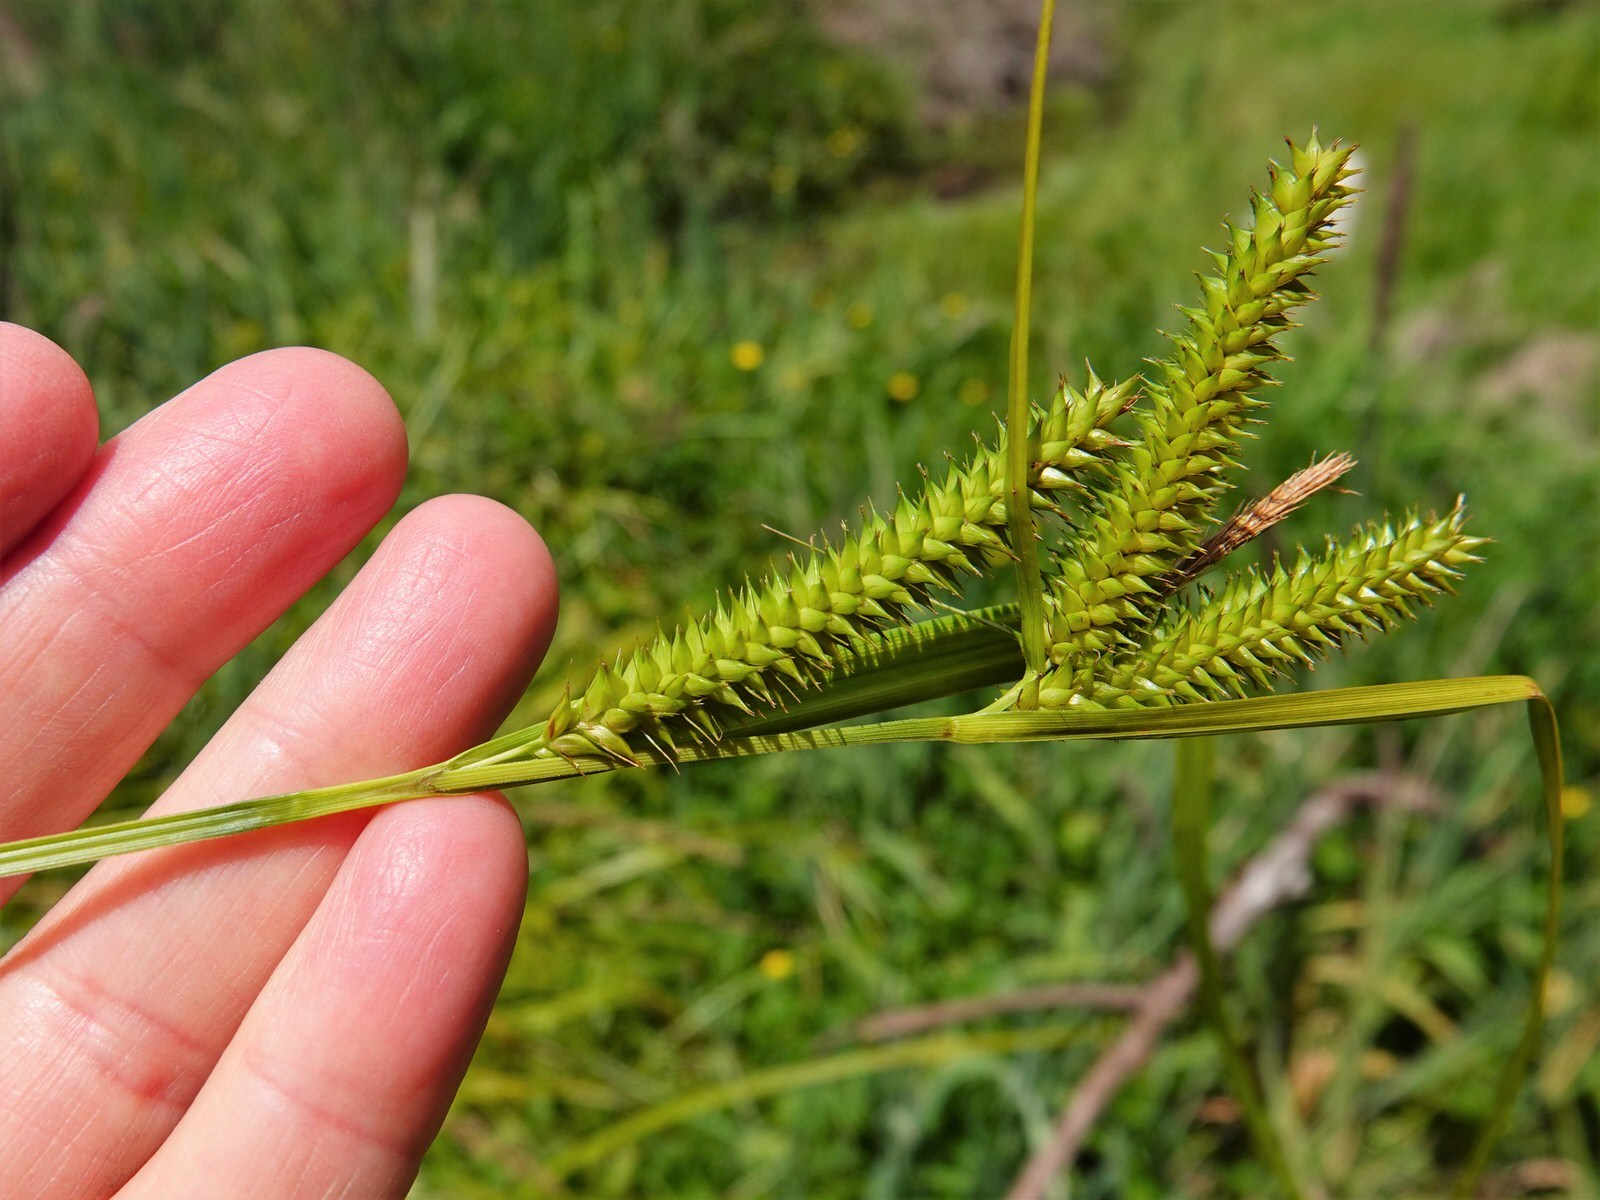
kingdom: Plantae
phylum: Tracheophyta
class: Liliopsida
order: Poales
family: Cyperaceae
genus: Carex
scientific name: Carex maorica
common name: Maori sedge
